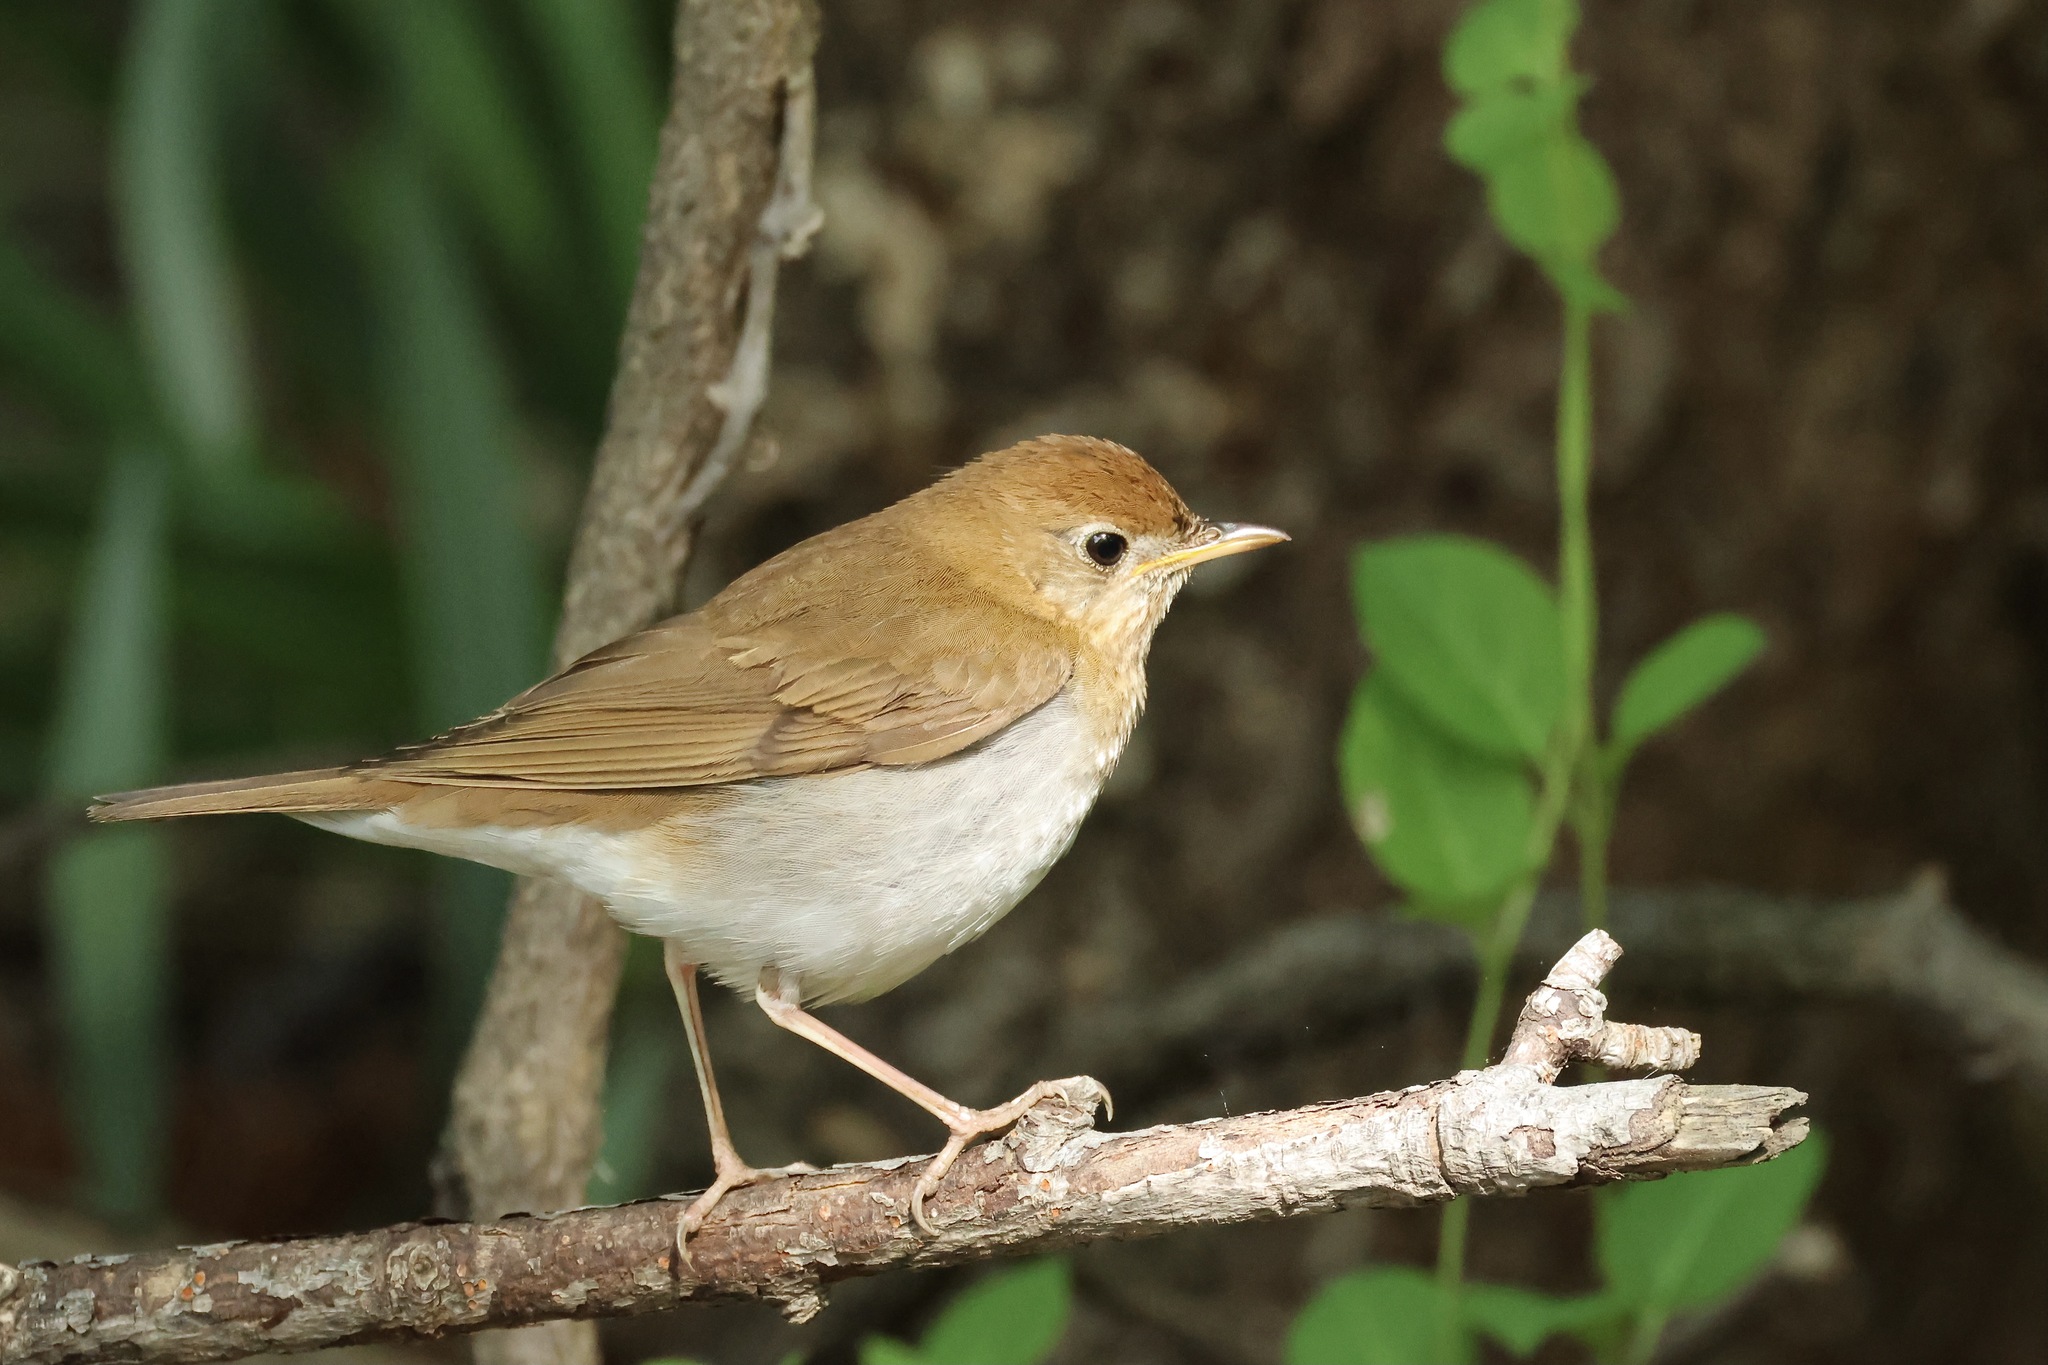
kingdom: Animalia
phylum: Chordata
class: Aves
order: Passeriformes
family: Turdidae
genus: Catharus
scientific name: Catharus fuscescens
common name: Veery
